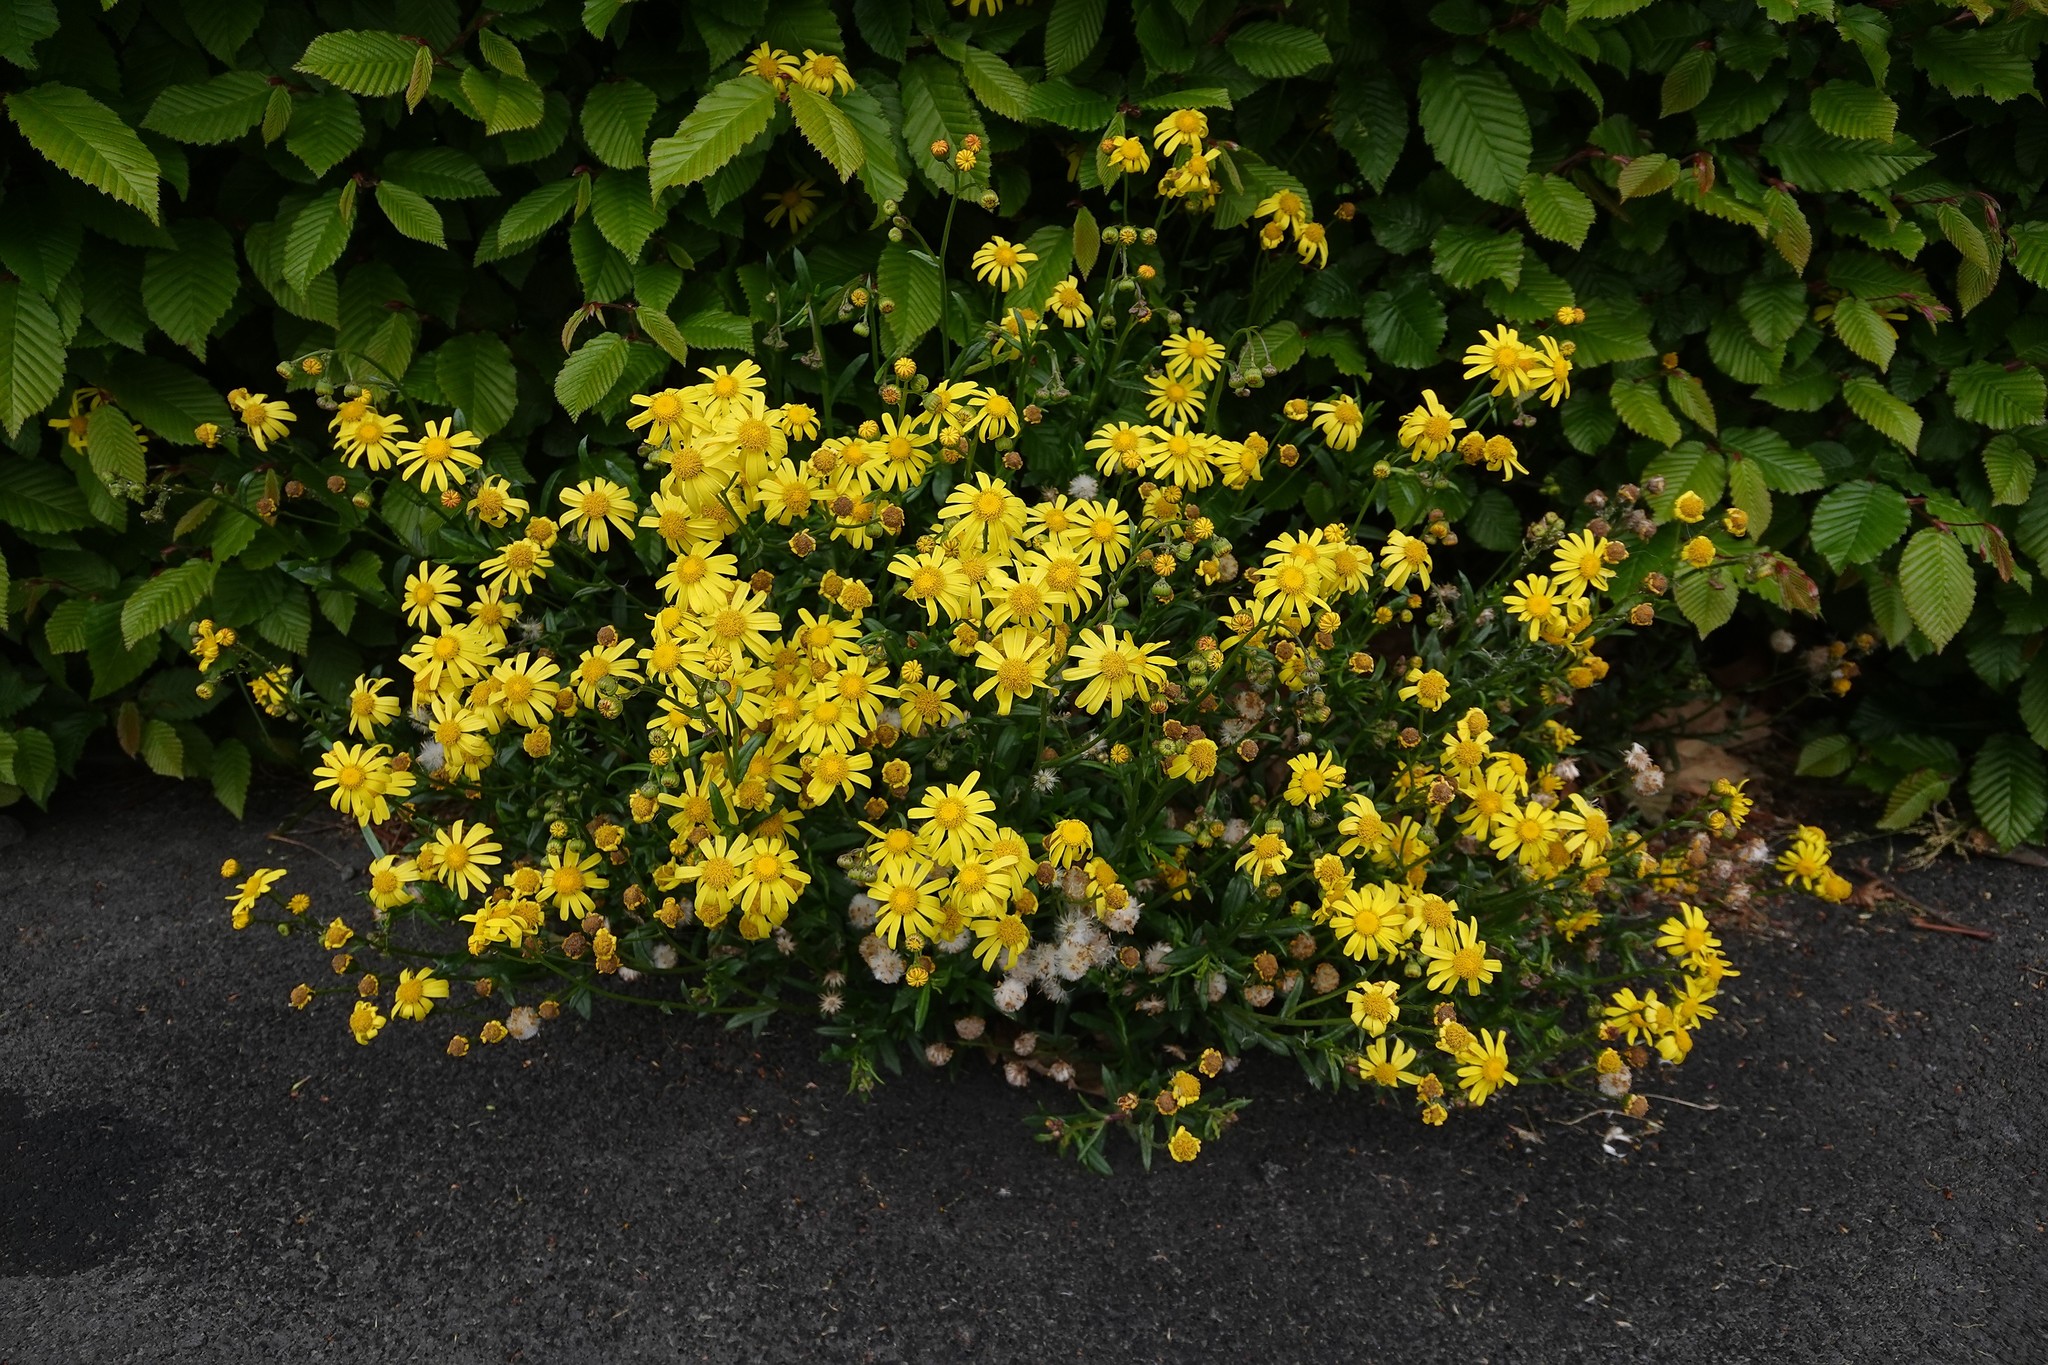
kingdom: Plantae
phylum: Tracheophyta
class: Magnoliopsida
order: Asterales
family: Asteraceae
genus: Senecio
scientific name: Senecio skirrhodon
